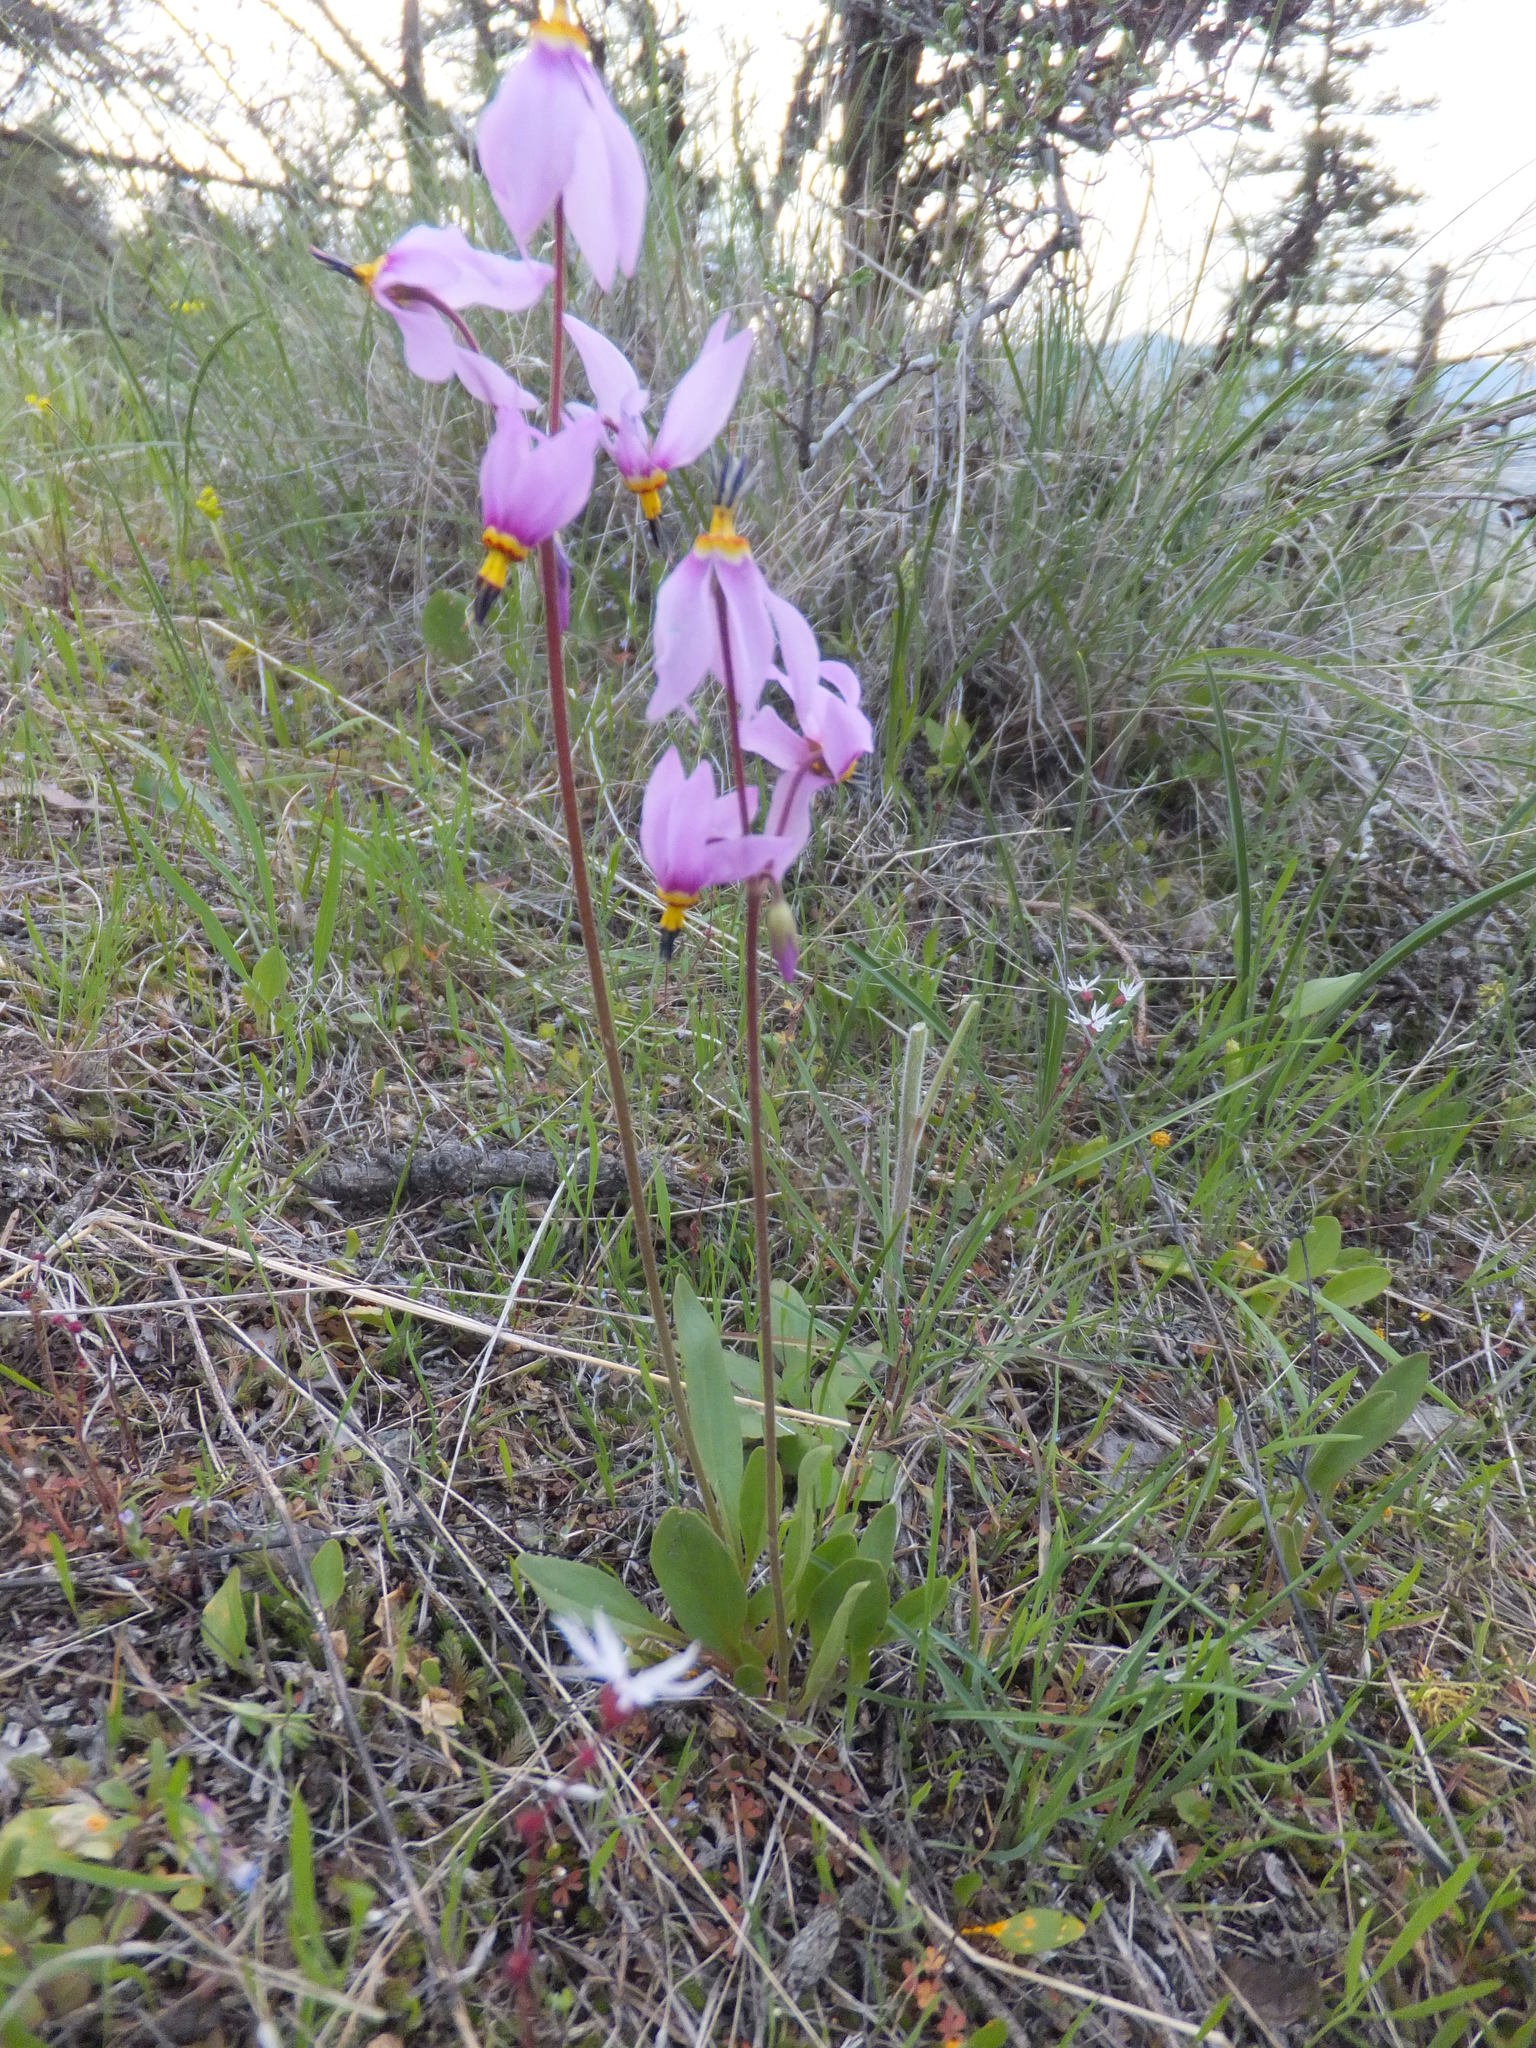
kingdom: Plantae
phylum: Tracheophyta
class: Magnoliopsida
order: Ericales
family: Primulaceae
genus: Dodecatheon
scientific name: Dodecatheon pulchellum
